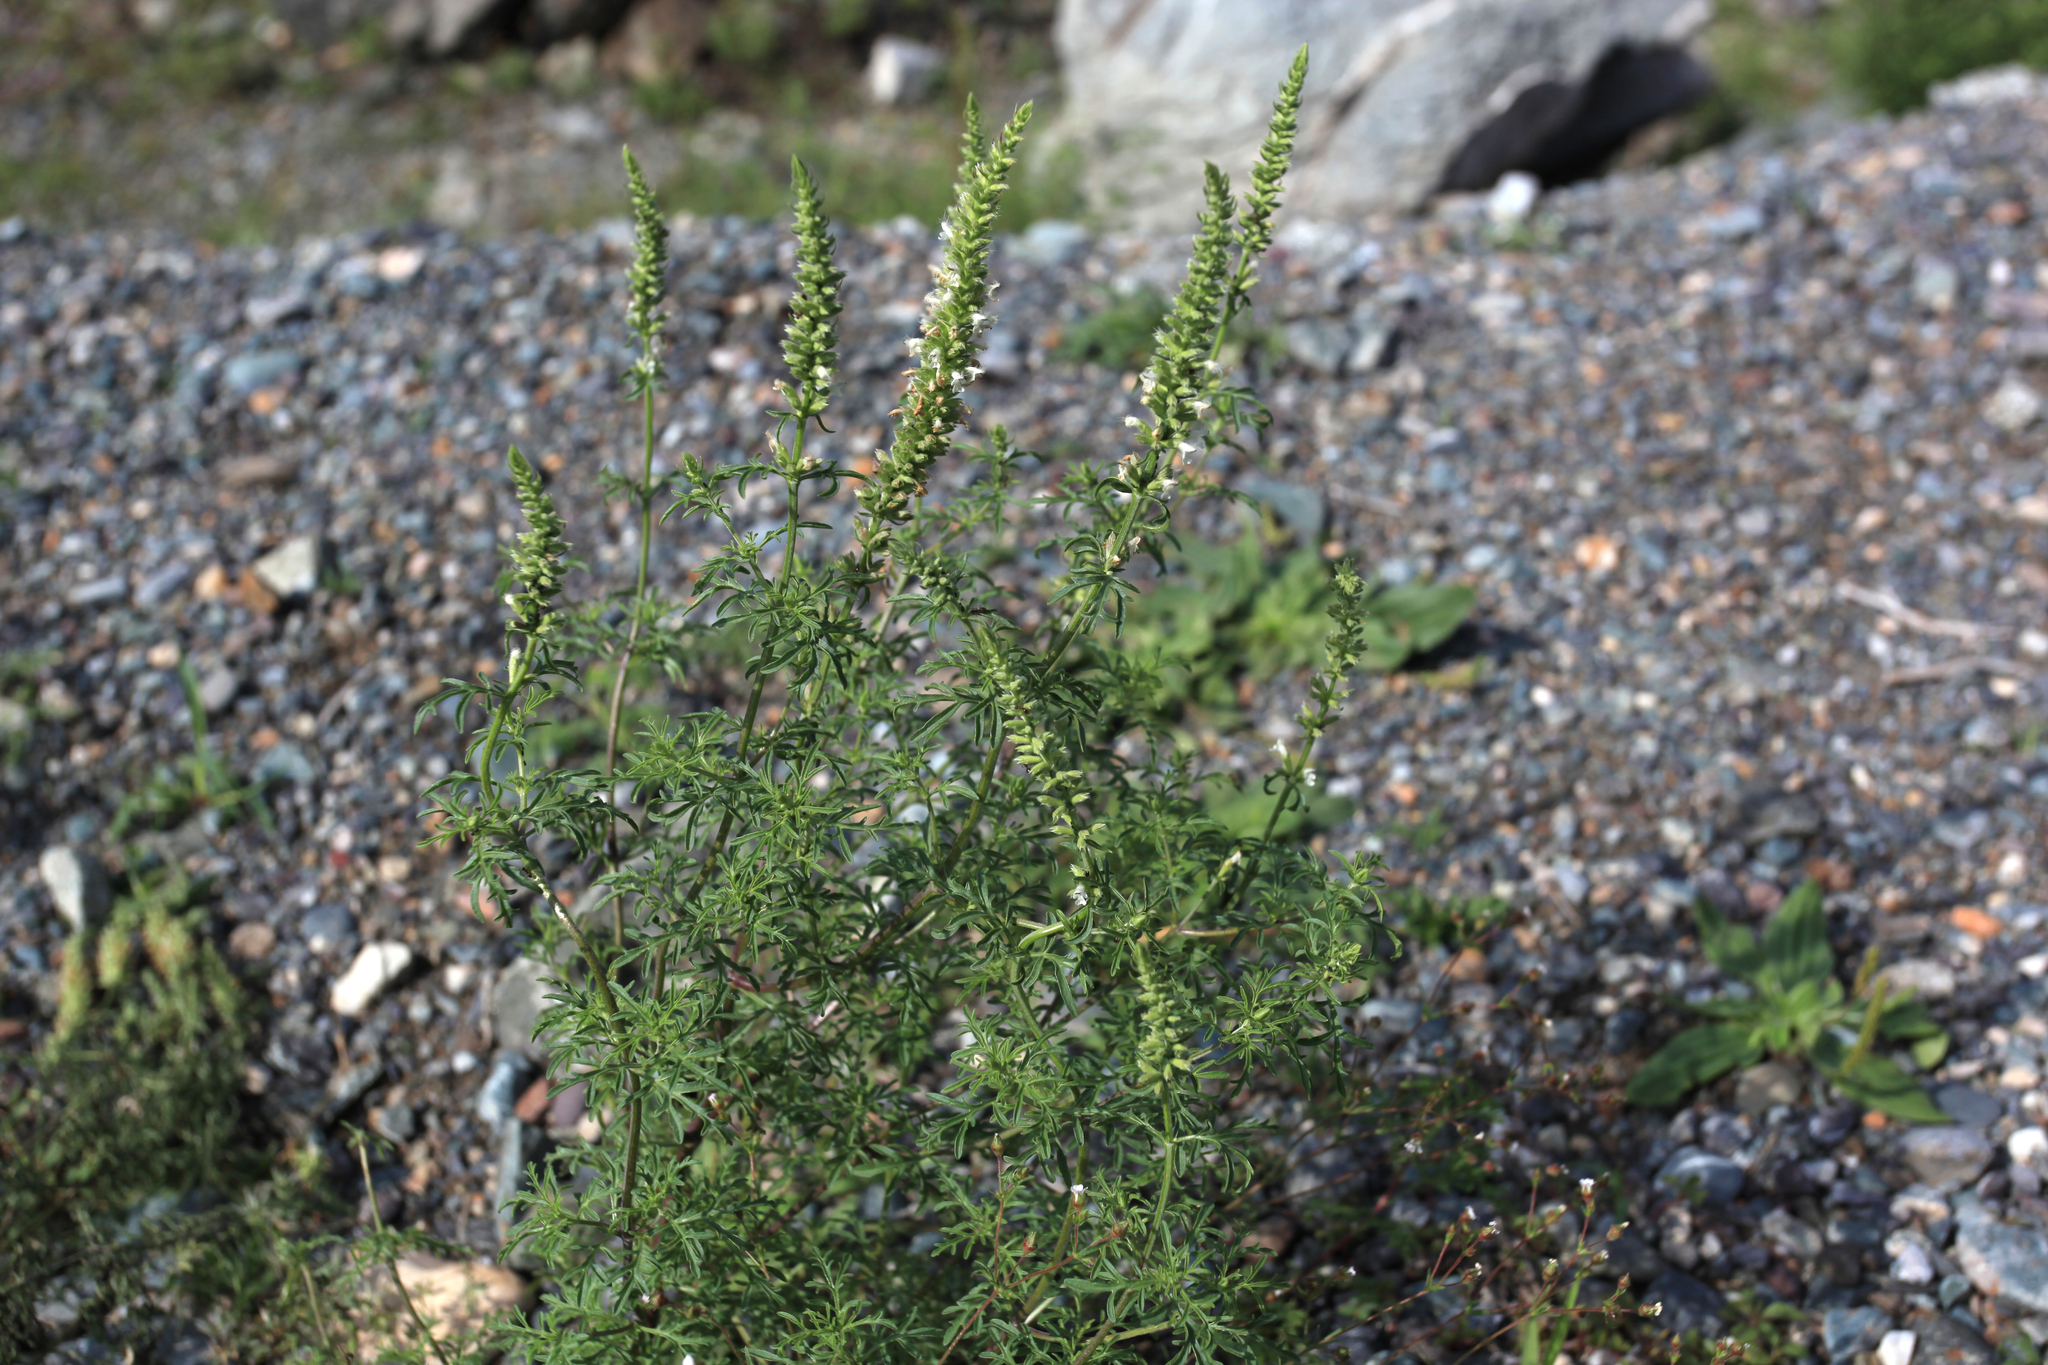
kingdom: Plantae
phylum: Tracheophyta
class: Magnoliopsida
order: Lamiales
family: Lamiaceae
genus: Nepeta
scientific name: Nepeta annua
